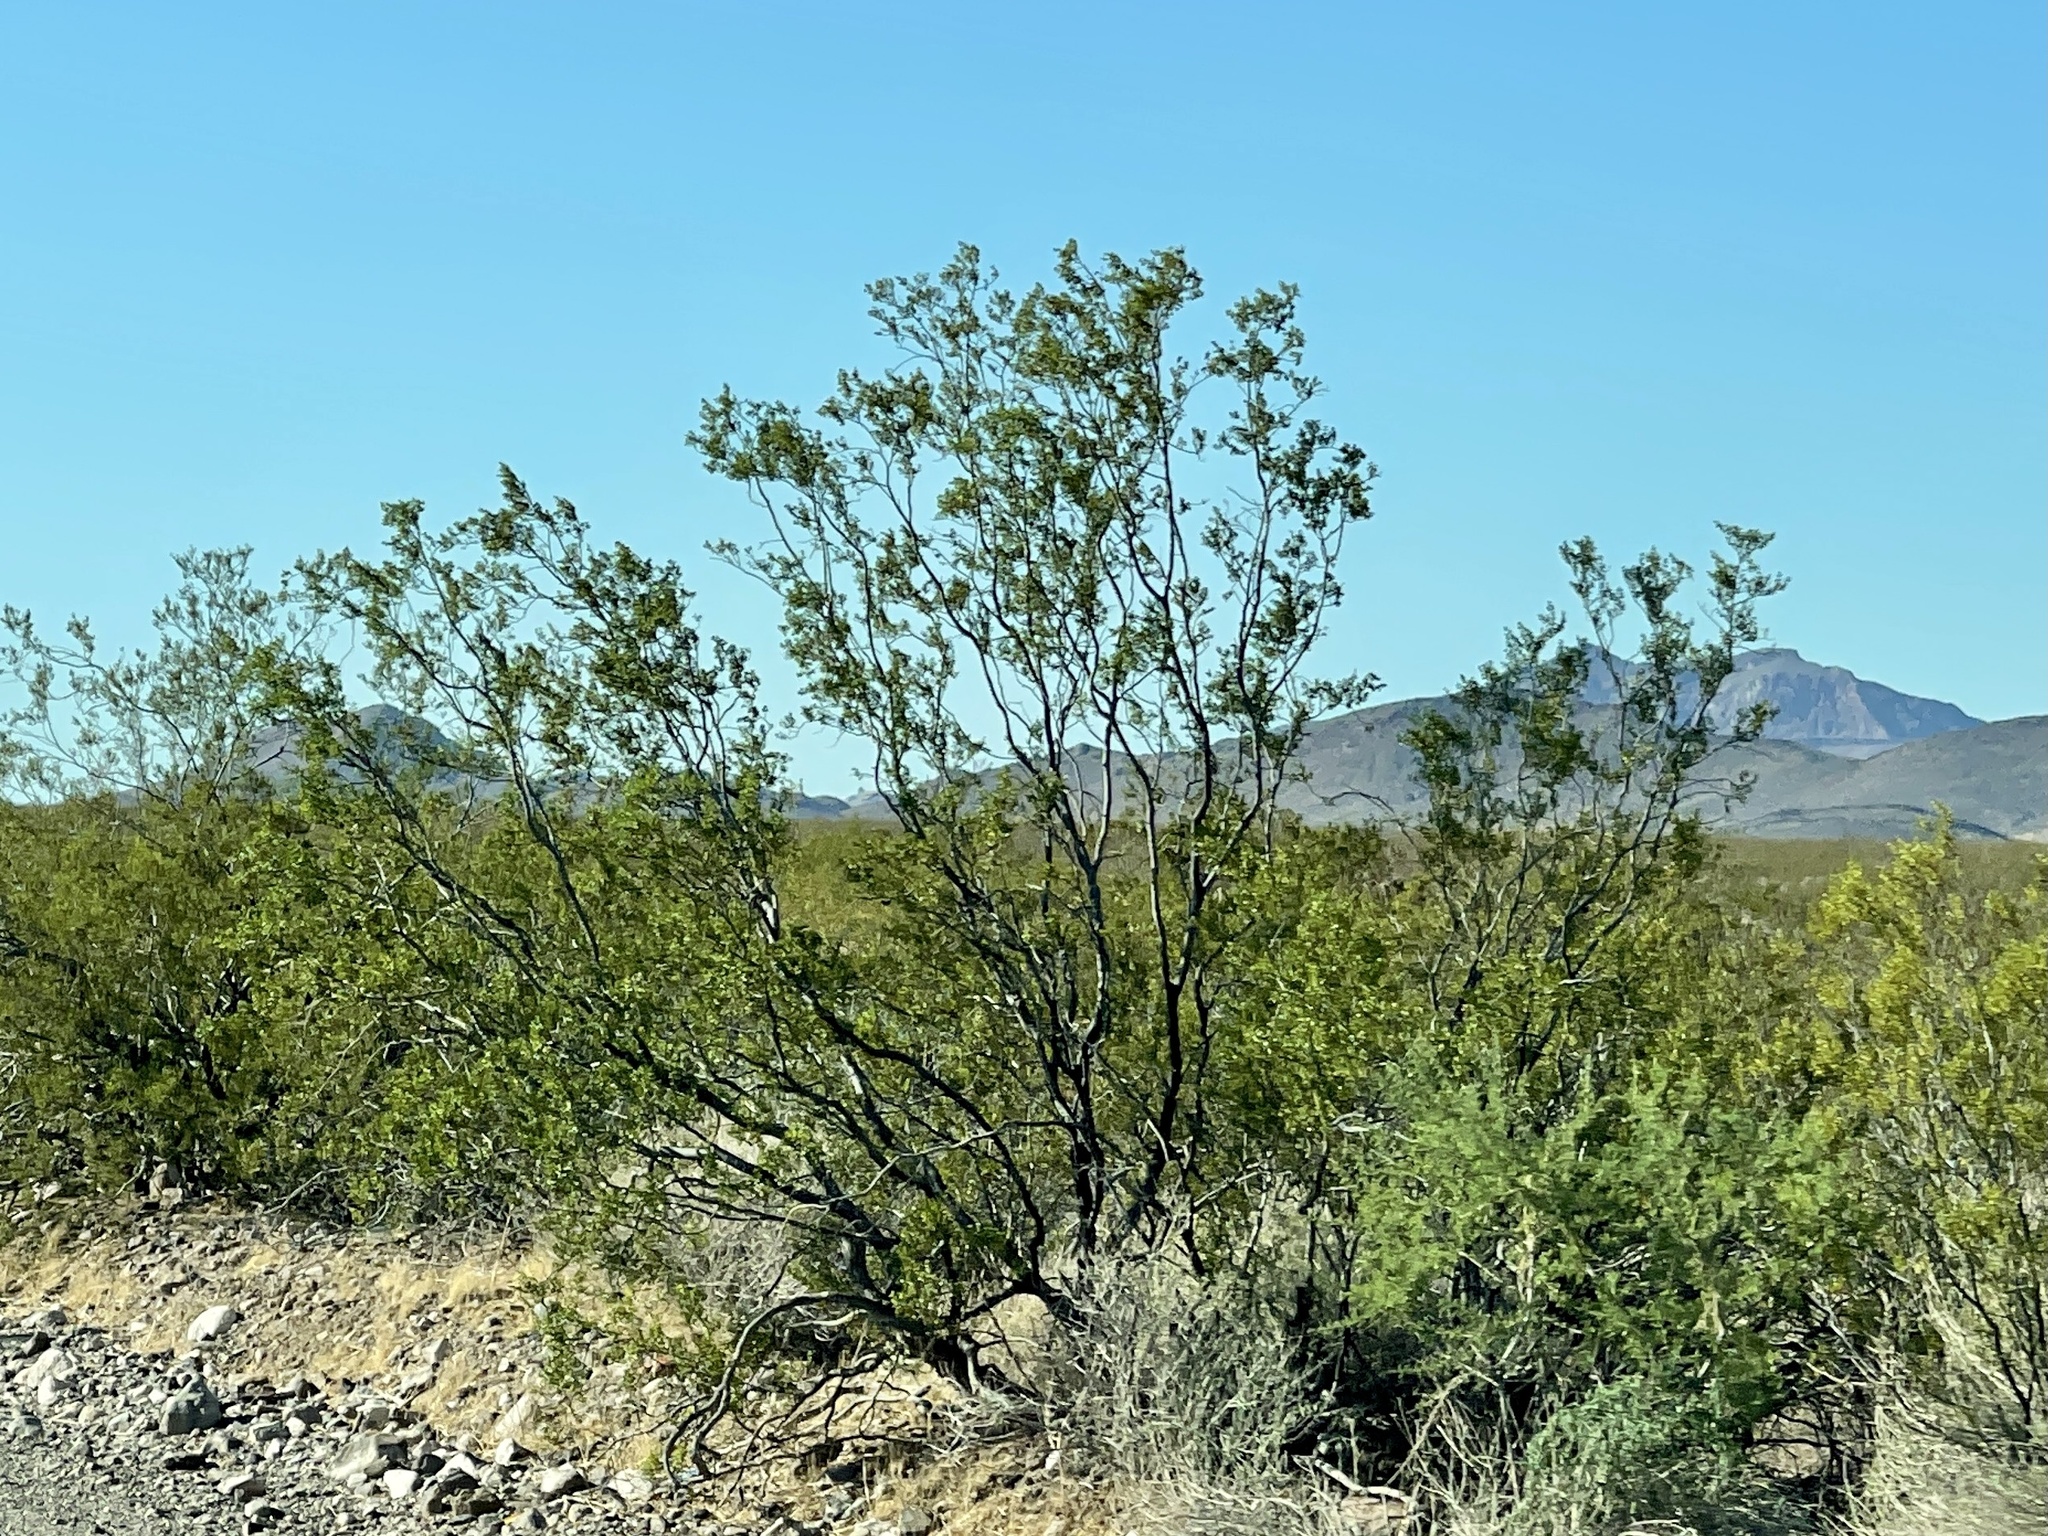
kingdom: Plantae
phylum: Tracheophyta
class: Magnoliopsida
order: Zygophyllales
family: Zygophyllaceae
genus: Larrea
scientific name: Larrea tridentata
